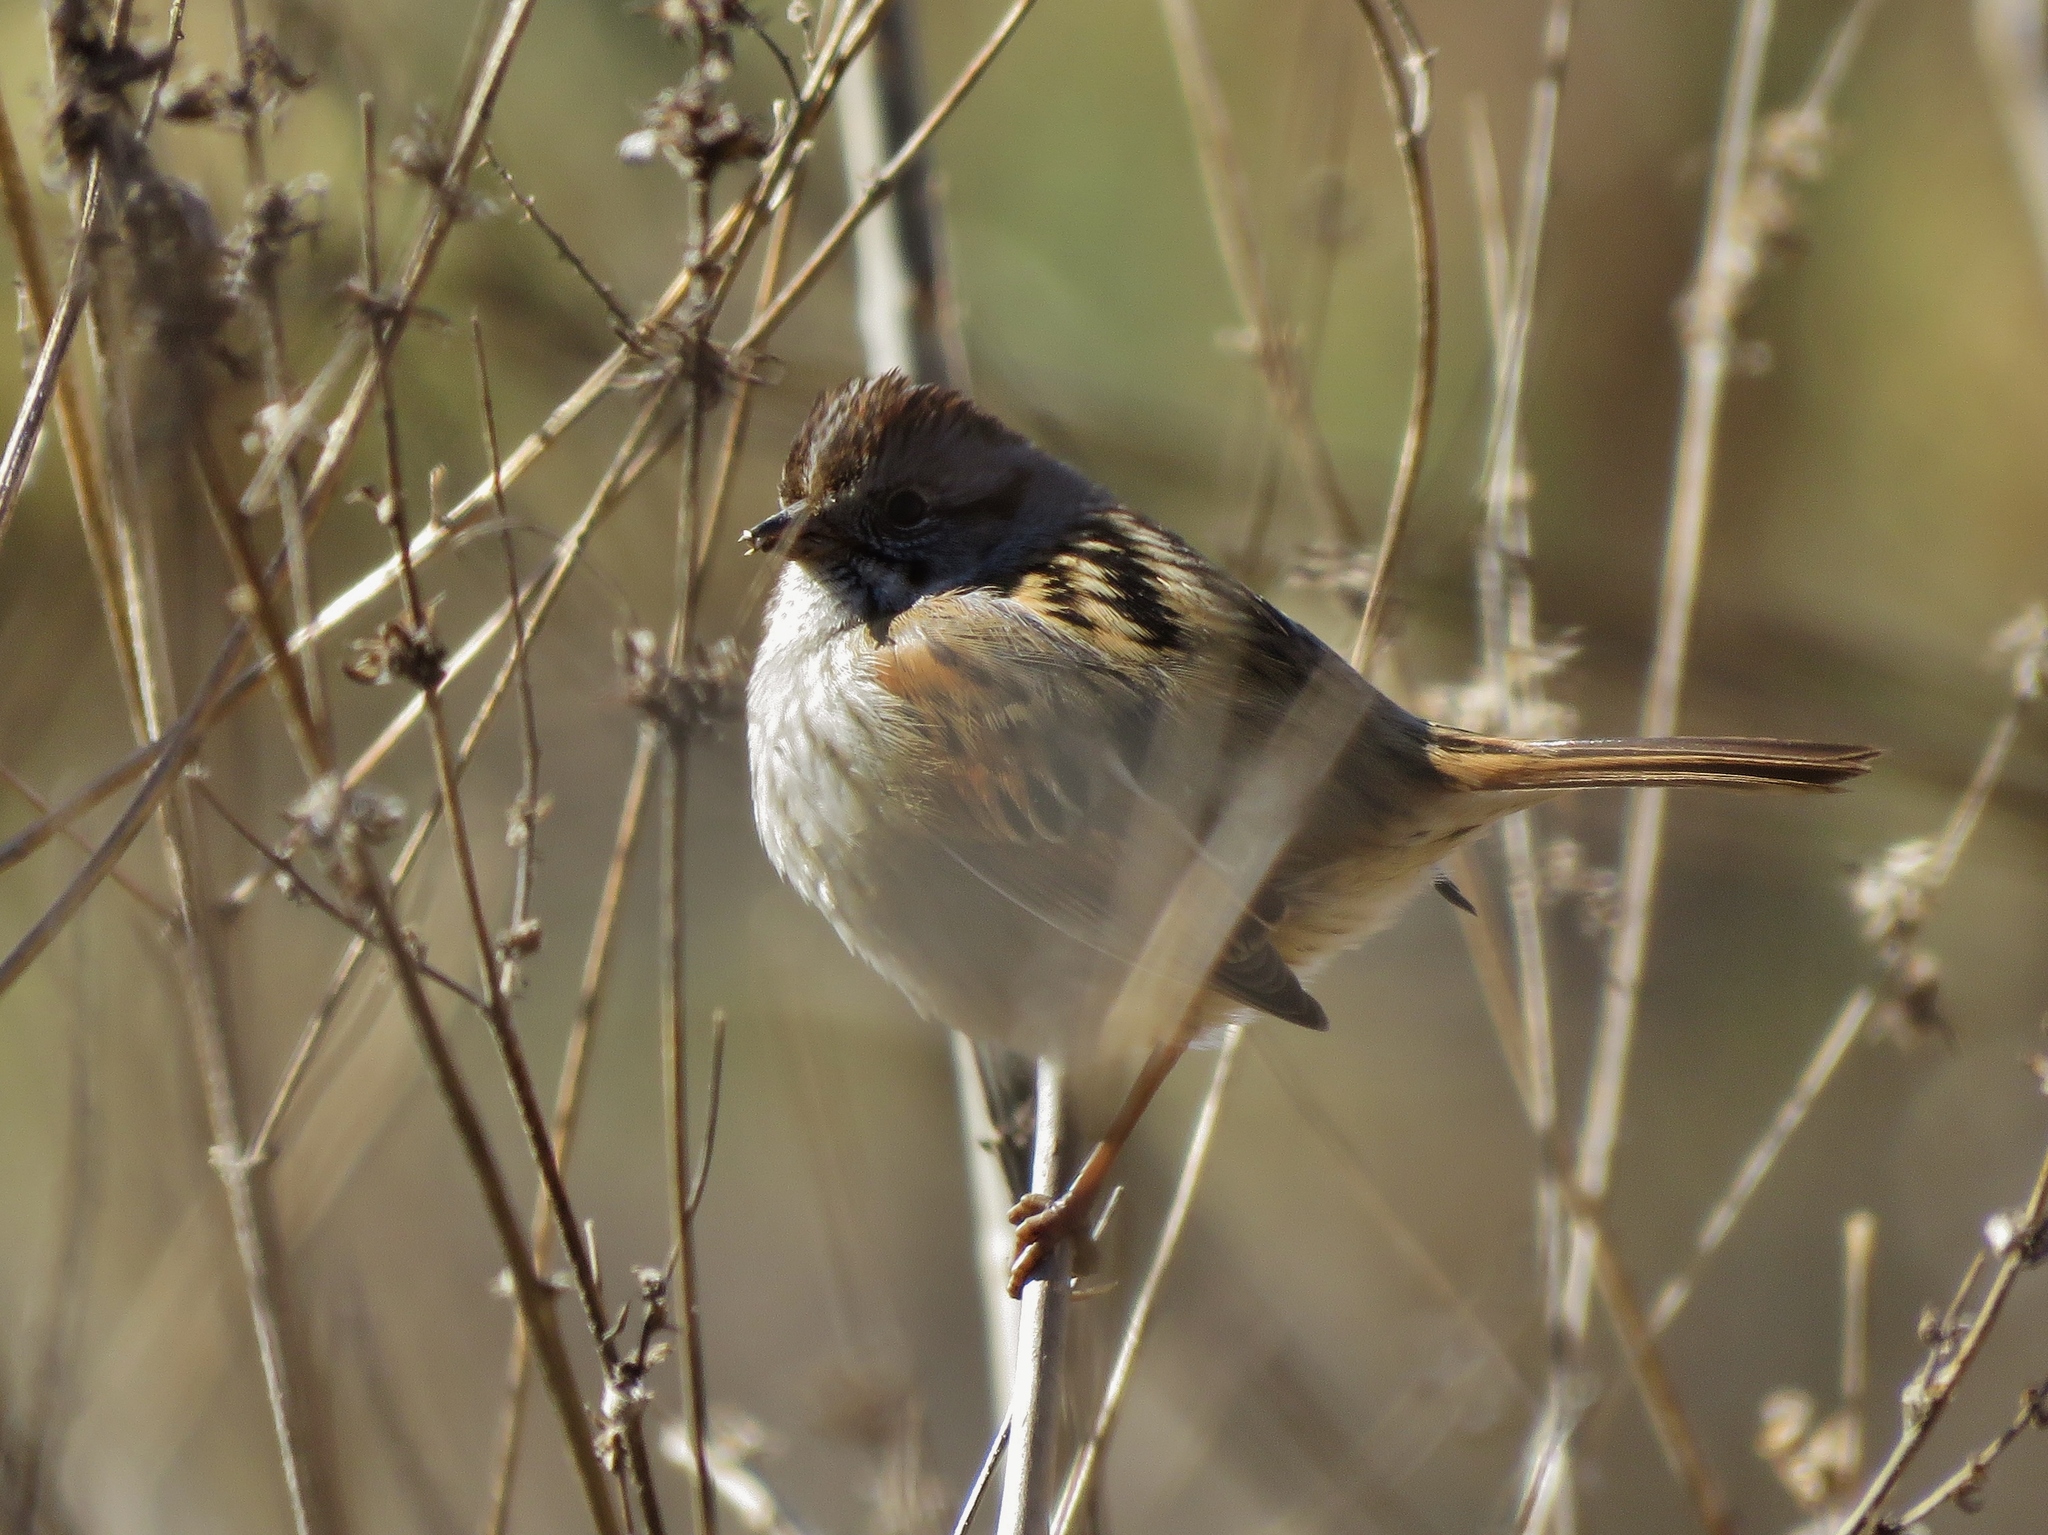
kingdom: Animalia
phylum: Chordata
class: Aves
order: Passeriformes
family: Passerellidae
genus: Melospiza
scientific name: Melospiza georgiana
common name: Swamp sparrow
